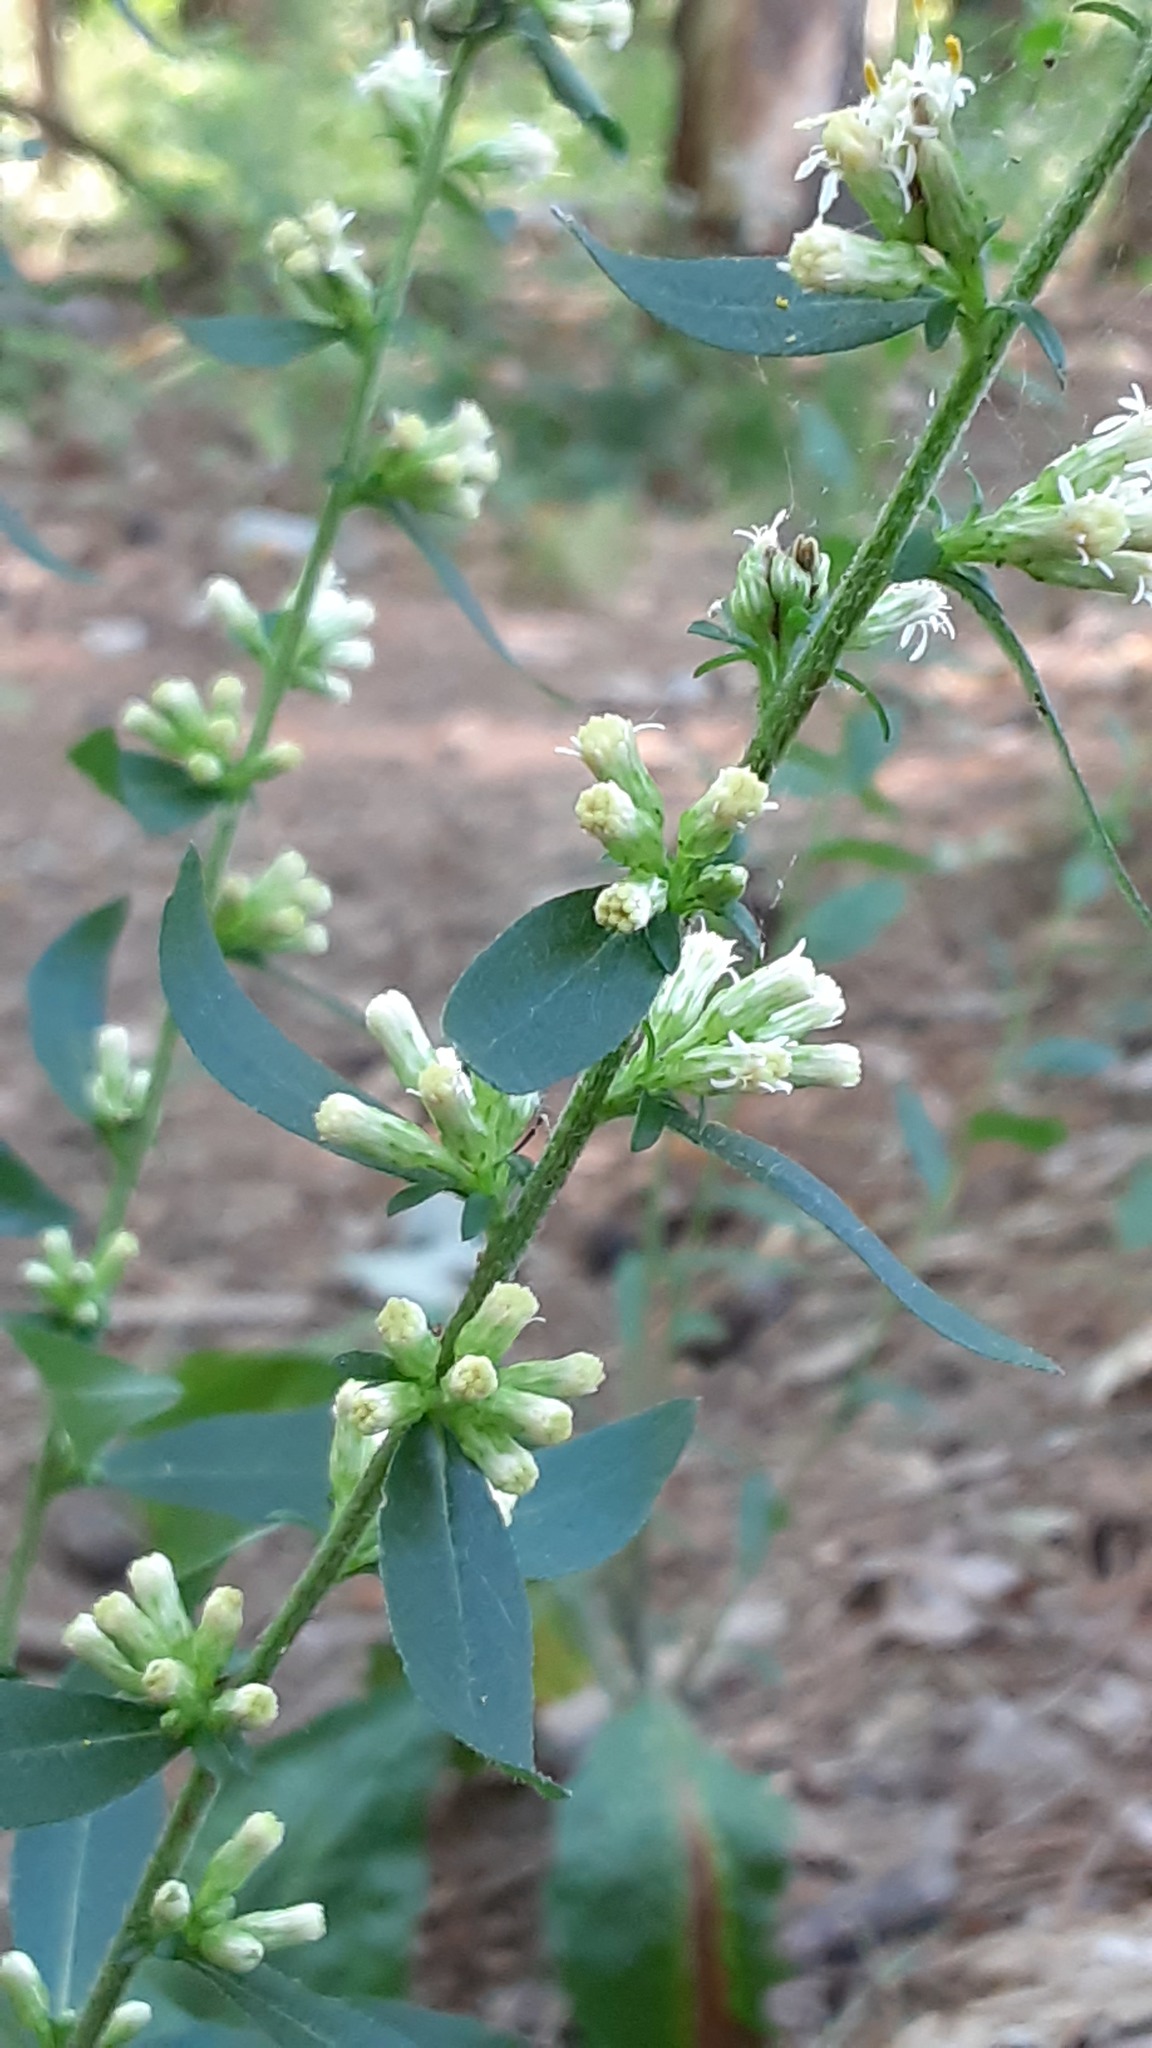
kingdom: Plantae
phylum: Tracheophyta
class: Magnoliopsida
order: Asterales
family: Asteraceae
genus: Solidago
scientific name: Solidago bicolor
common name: Silverrod
